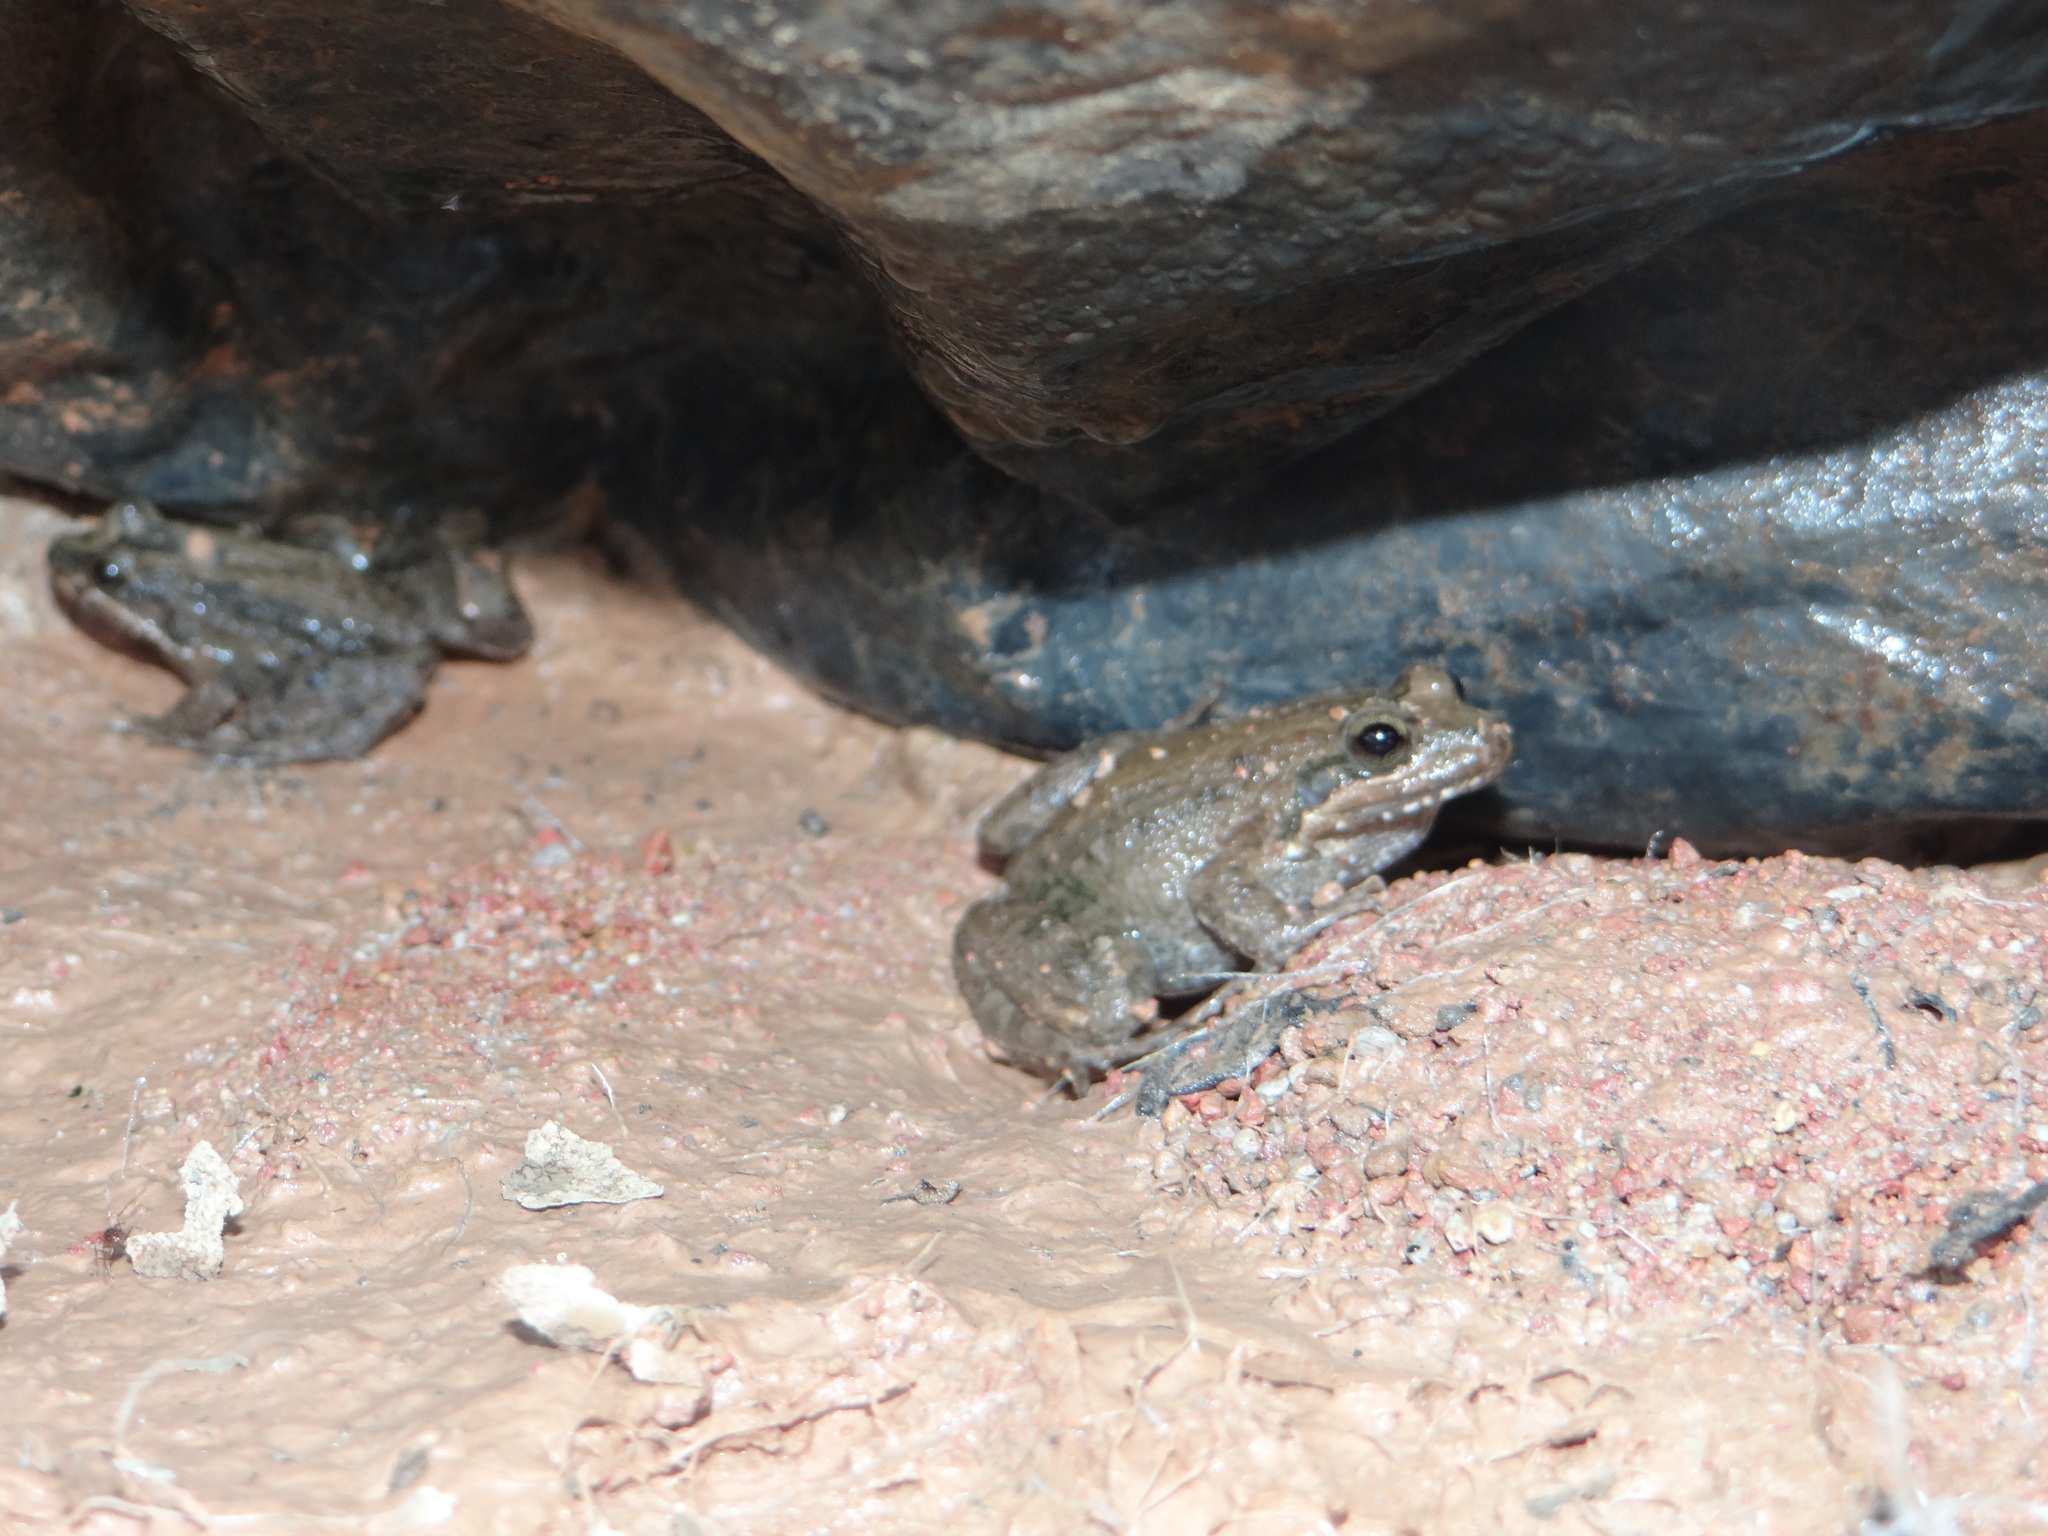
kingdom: Animalia
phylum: Chordata
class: Amphibia
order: Anura
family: Leptodactylidae
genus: Leptodactylus
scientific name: Leptodactylus podicipinus
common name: Pointedbelly frog
